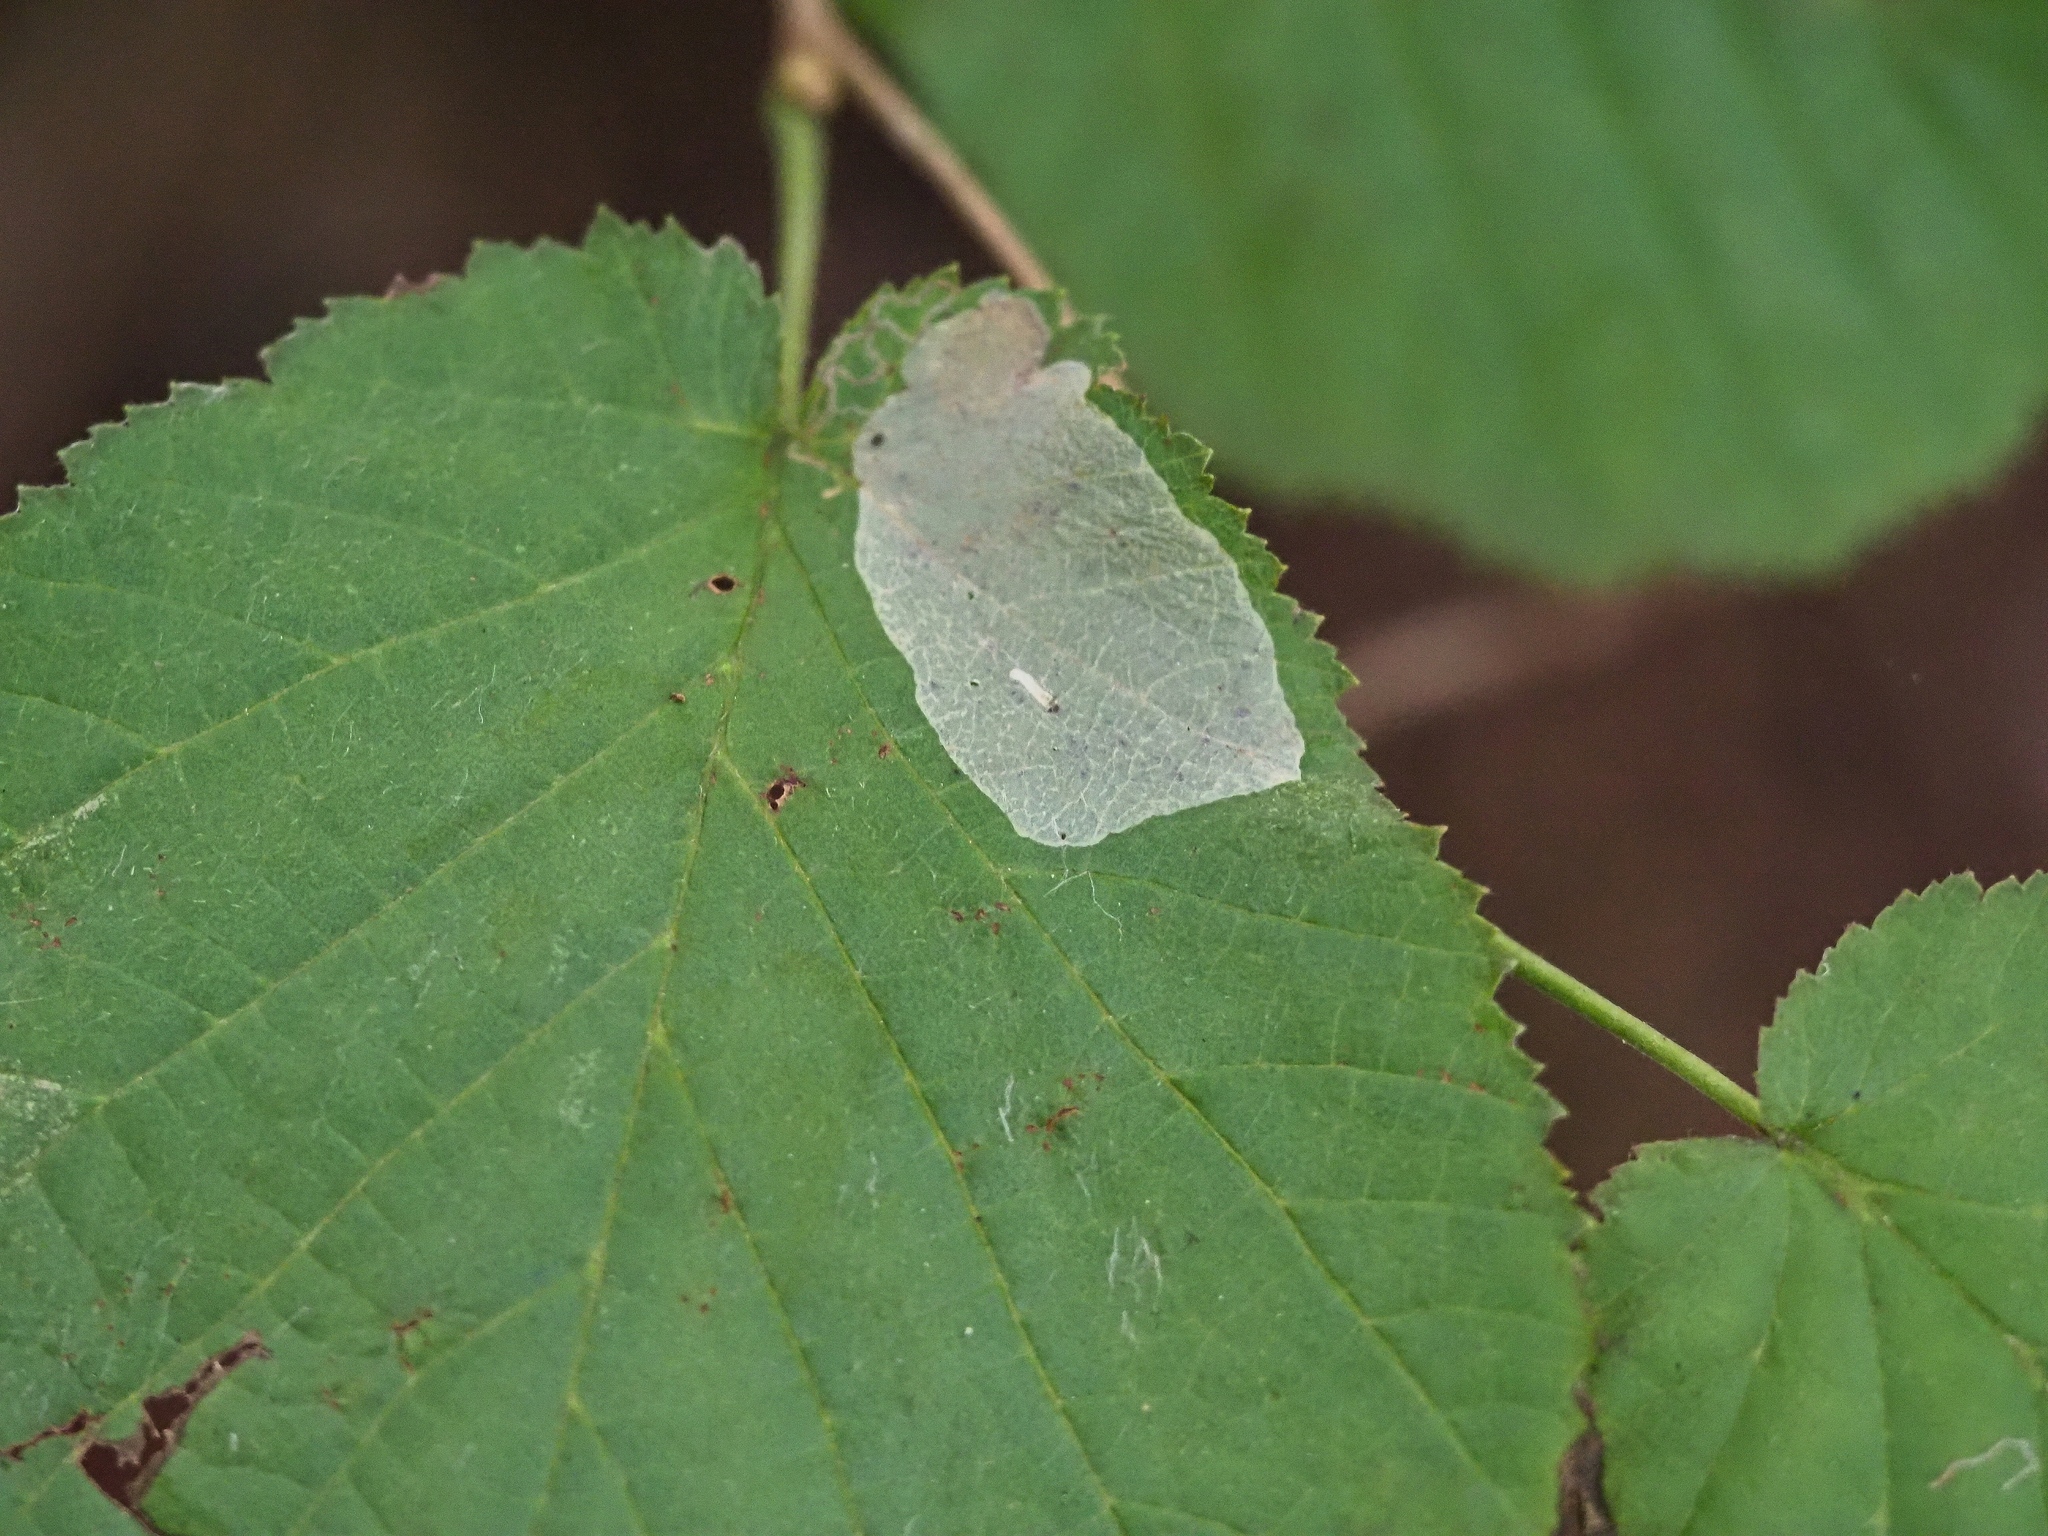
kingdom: Animalia
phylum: Arthropoda
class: Insecta
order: Lepidoptera
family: Gracillariidae
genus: Phyllonorycter
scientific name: Phyllonorycter coryli
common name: Nut-leaf blister moth
